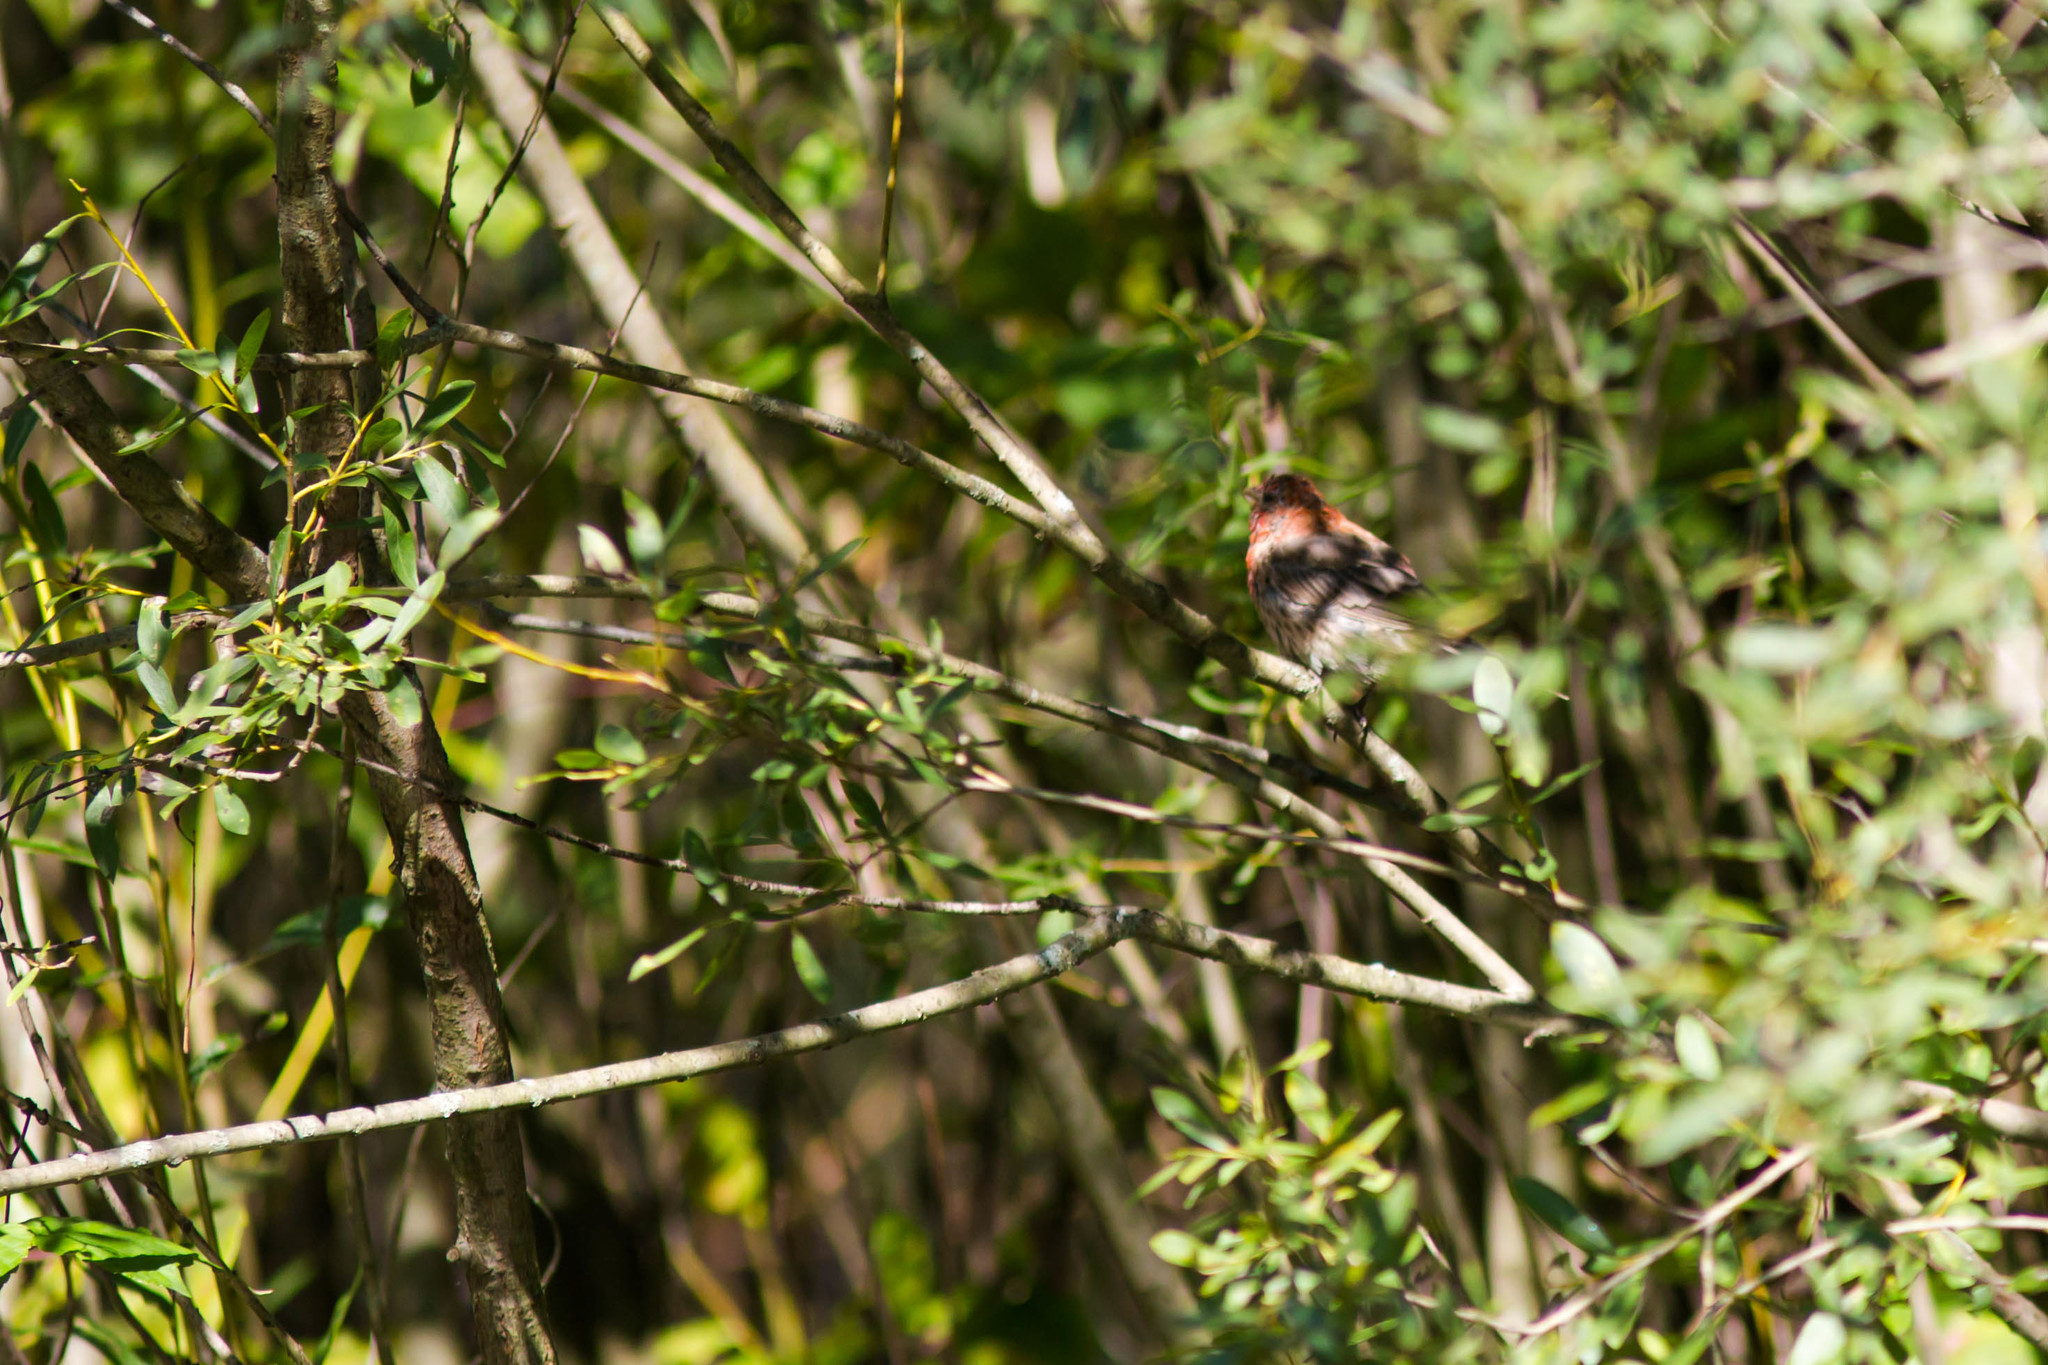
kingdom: Animalia
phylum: Chordata
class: Aves
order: Passeriformes
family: Fringillidae
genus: Haemorhous
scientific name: Haemorhous mexicanus
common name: House finch
